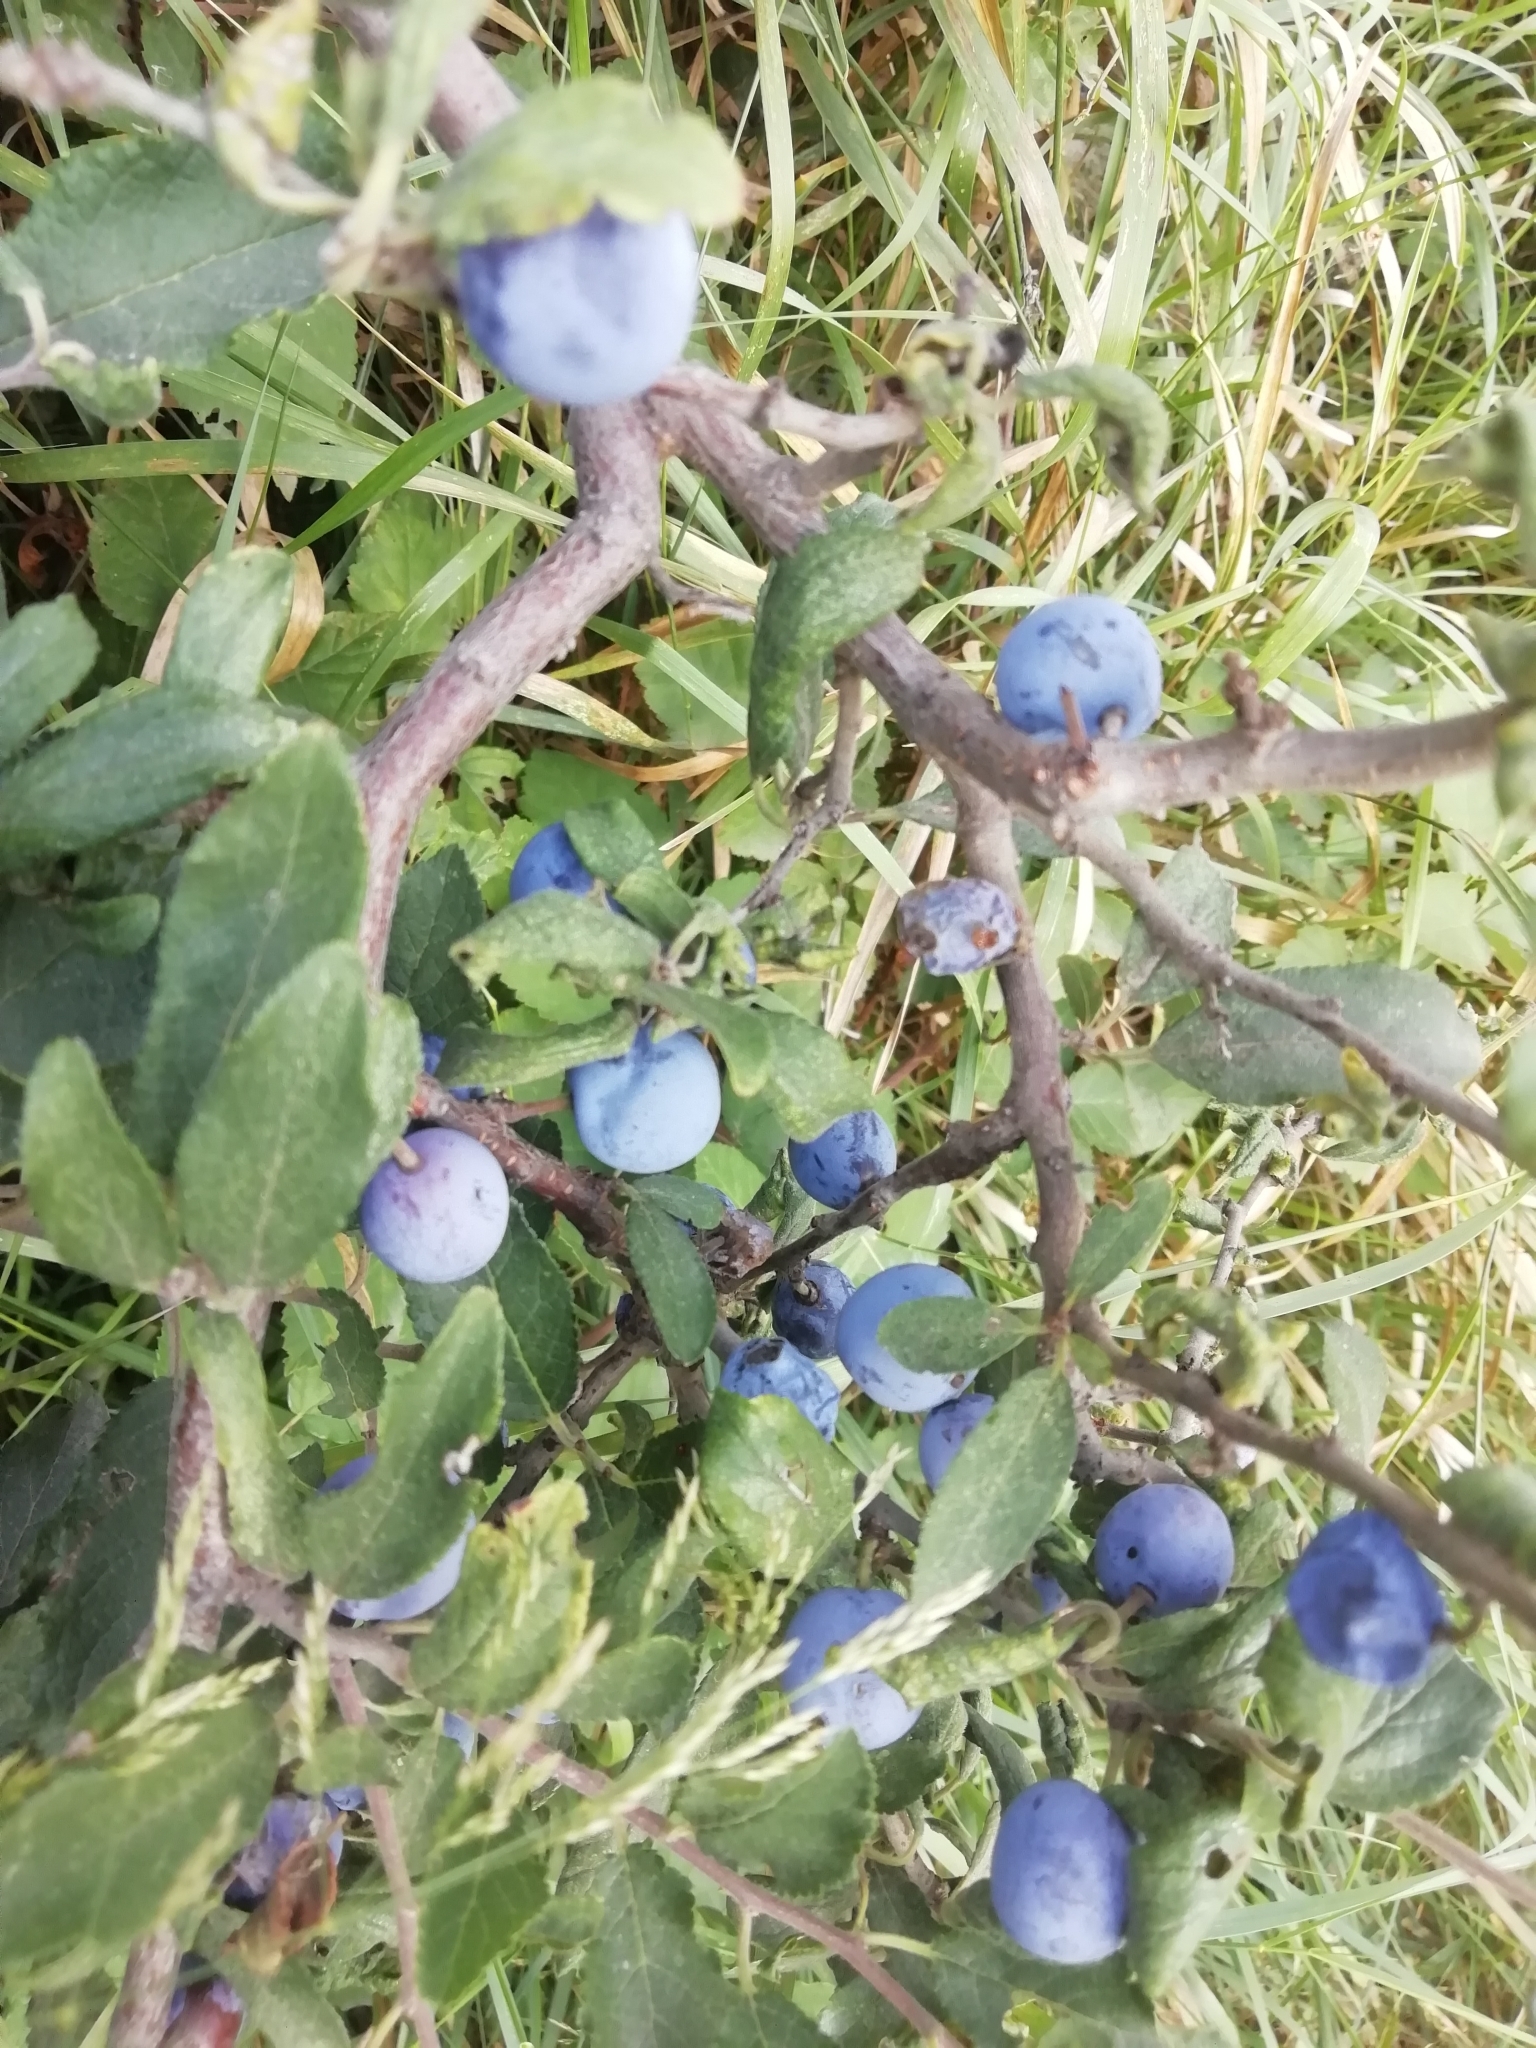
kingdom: Plantae
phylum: Tracheophyta
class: Magnoliopsida
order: Rosales
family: Rosaceae
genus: Prunus
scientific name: Prunus spinosa
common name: Blackthorn
